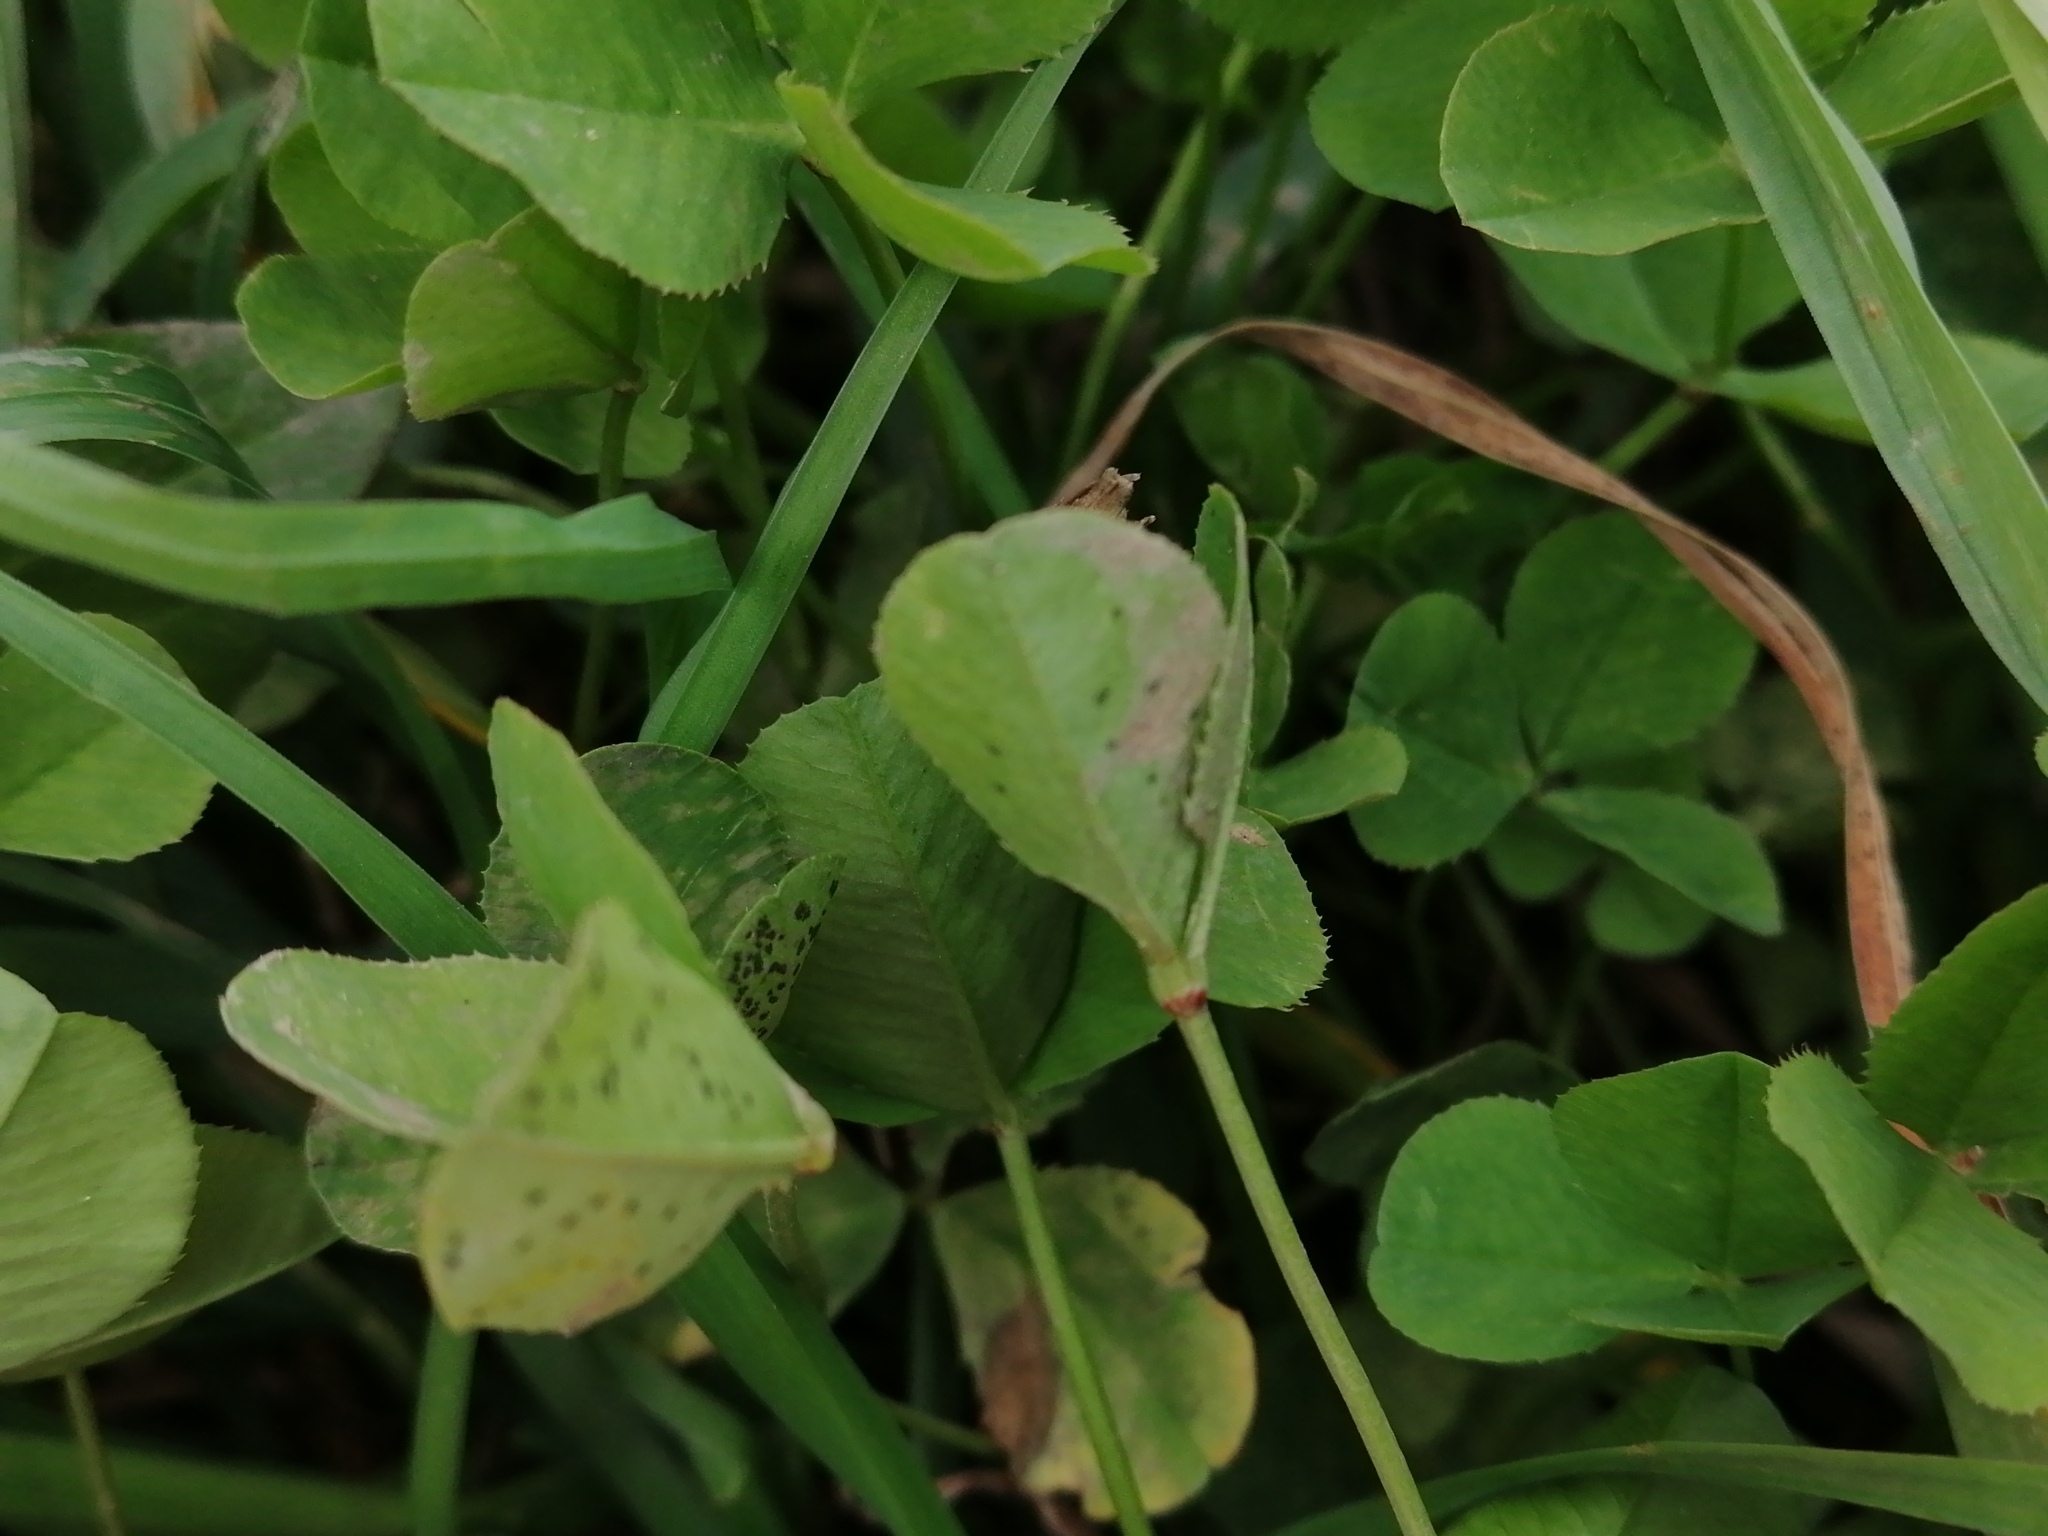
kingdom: Plantae
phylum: Tracheophyta
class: Magnoliopsida
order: Fabales
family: Fabaceae
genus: Trifolium
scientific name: Trifolium repens
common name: White clover
